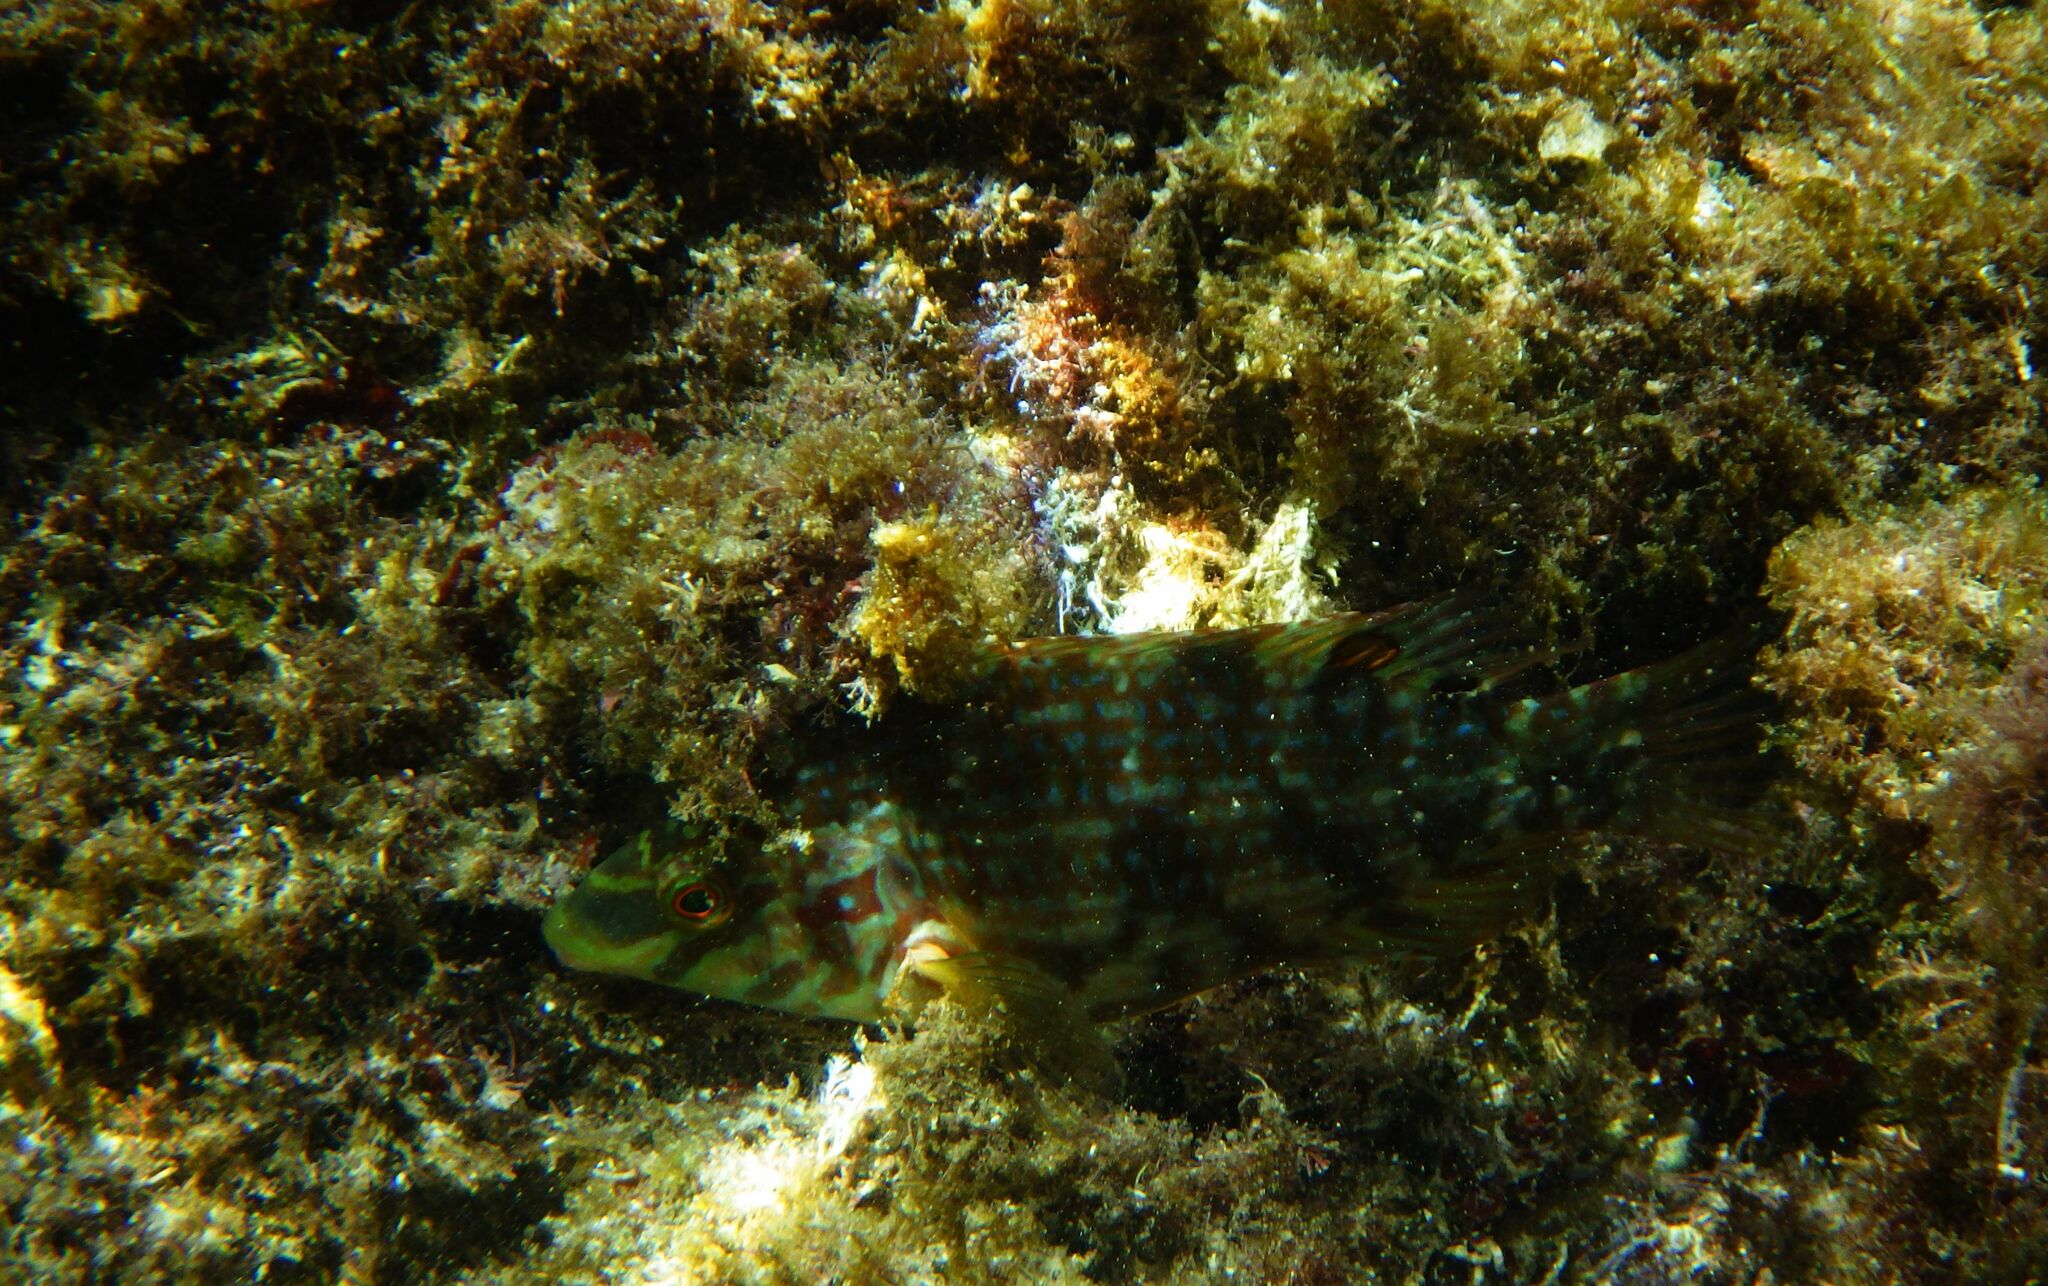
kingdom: Animalia
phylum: Chordata
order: Perciformes
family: Labridae
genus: Symphodus
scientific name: Symphodus roissali
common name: Five-spotted wrasse
